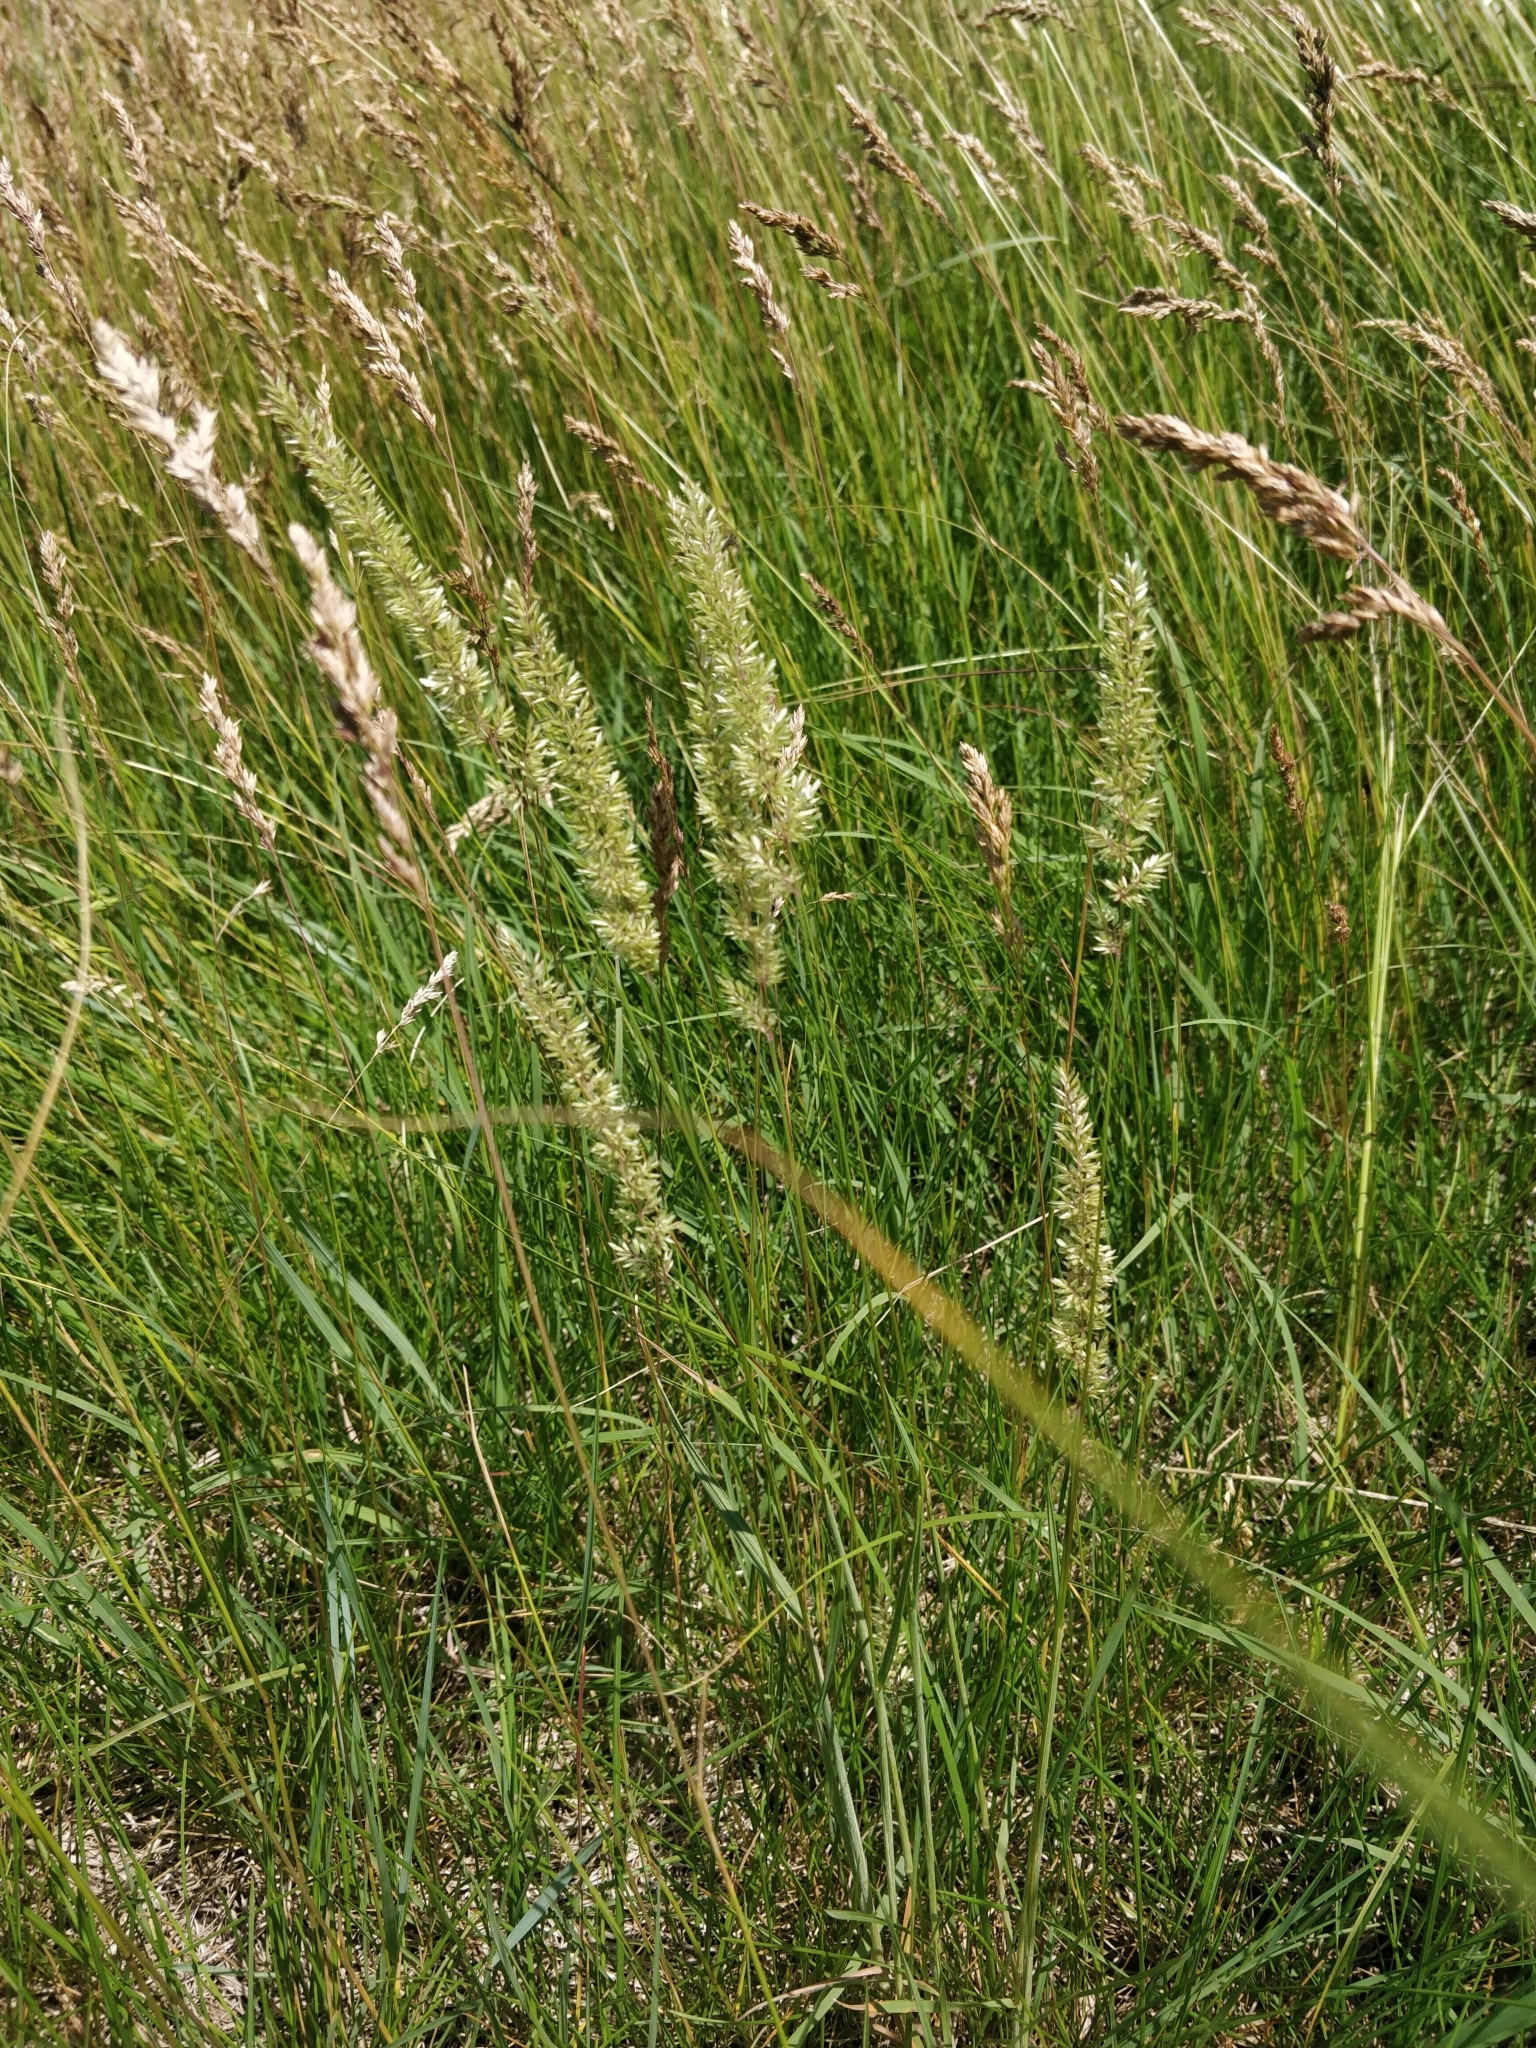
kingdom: Plantae
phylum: Tracheophyta
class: Liliopsida
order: Poales
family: Poaceae
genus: Koeleria
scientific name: Koeleria macrantha
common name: Crested hair-grass
